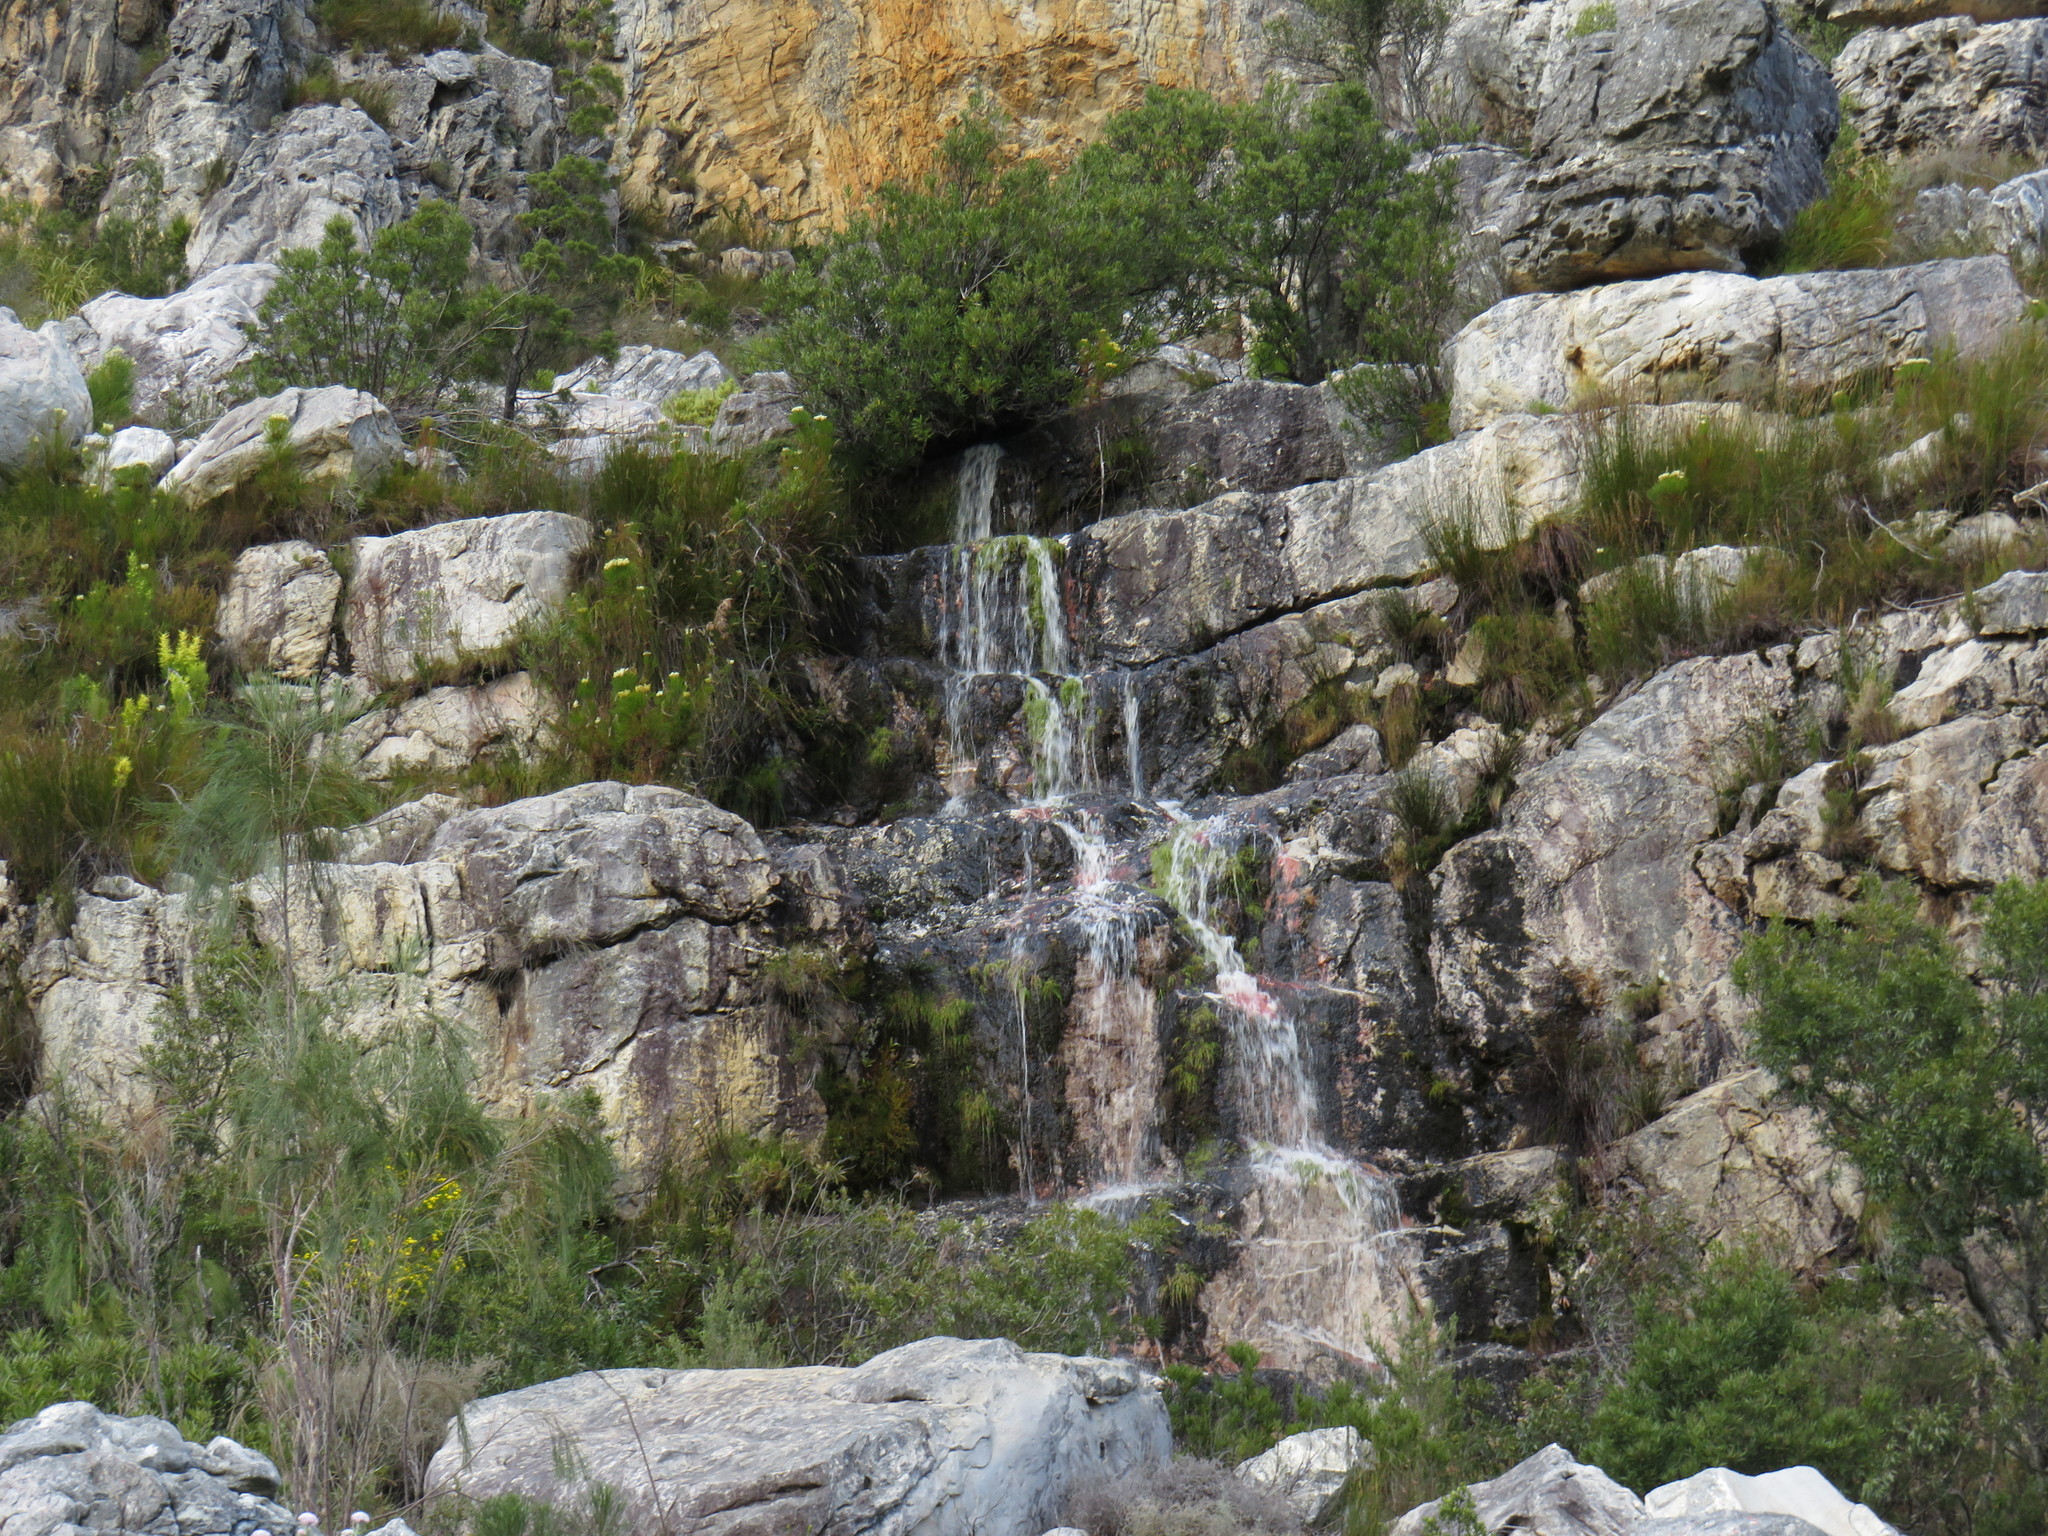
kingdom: Plantae
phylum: Tracheophyta
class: Liliopsida
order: Poales
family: Cyperaceae
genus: Isolepis
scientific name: Isolepis digitata
